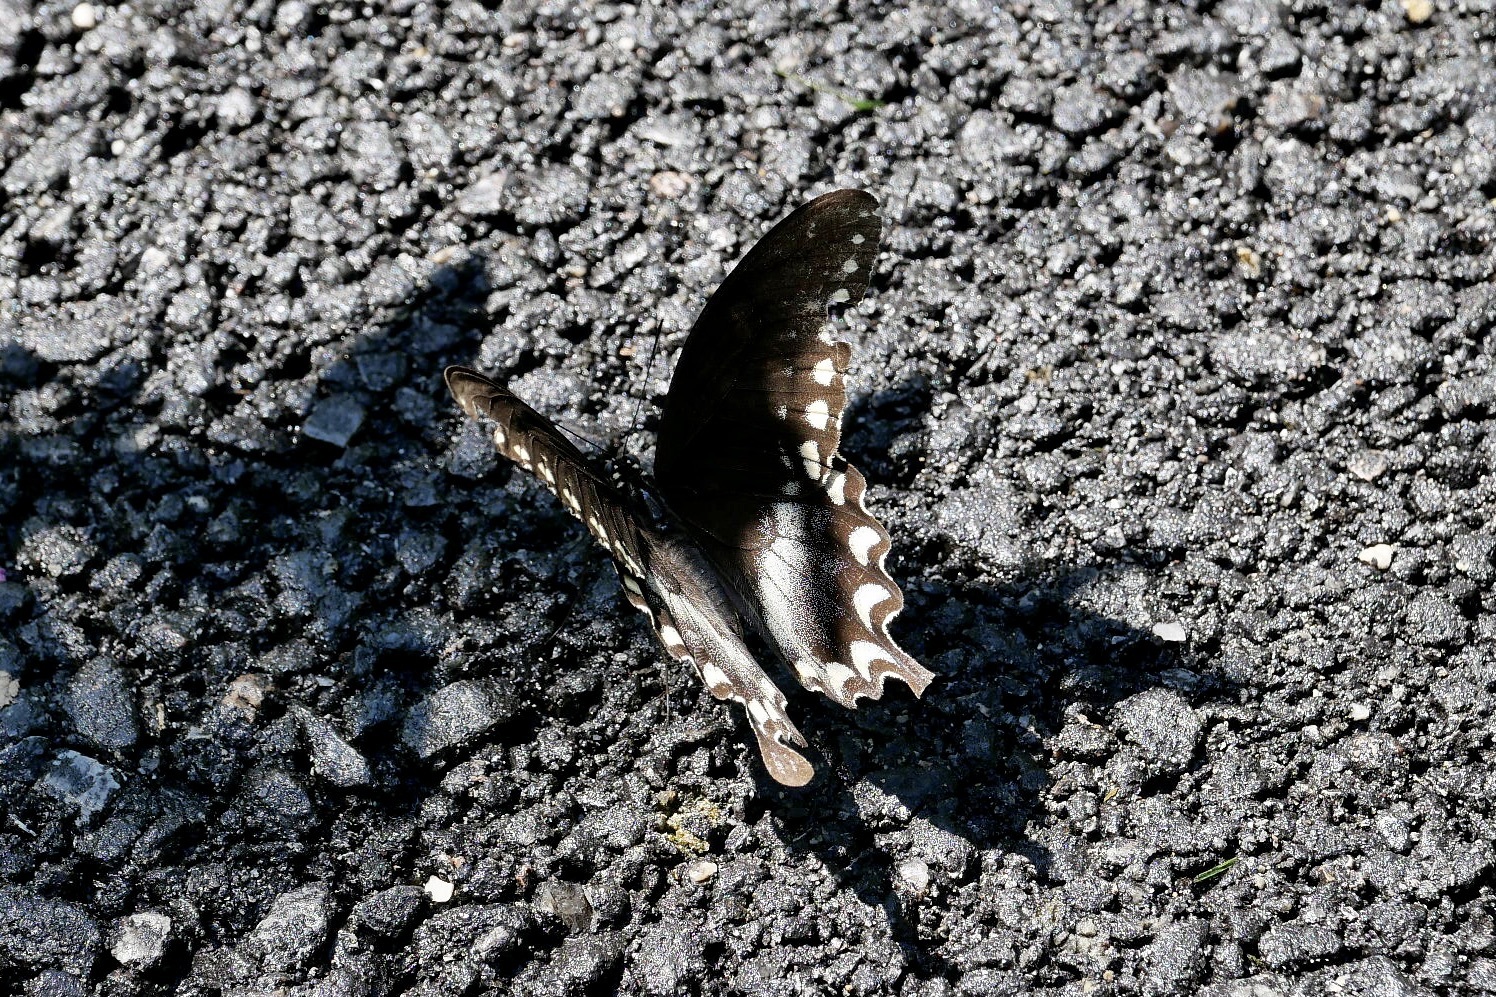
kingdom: Animalia
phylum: Arthropoda
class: Insecta
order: Lepidoptera
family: Papilionidae
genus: Papilio
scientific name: Papilio troilus
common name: Spicebush swallowtail
